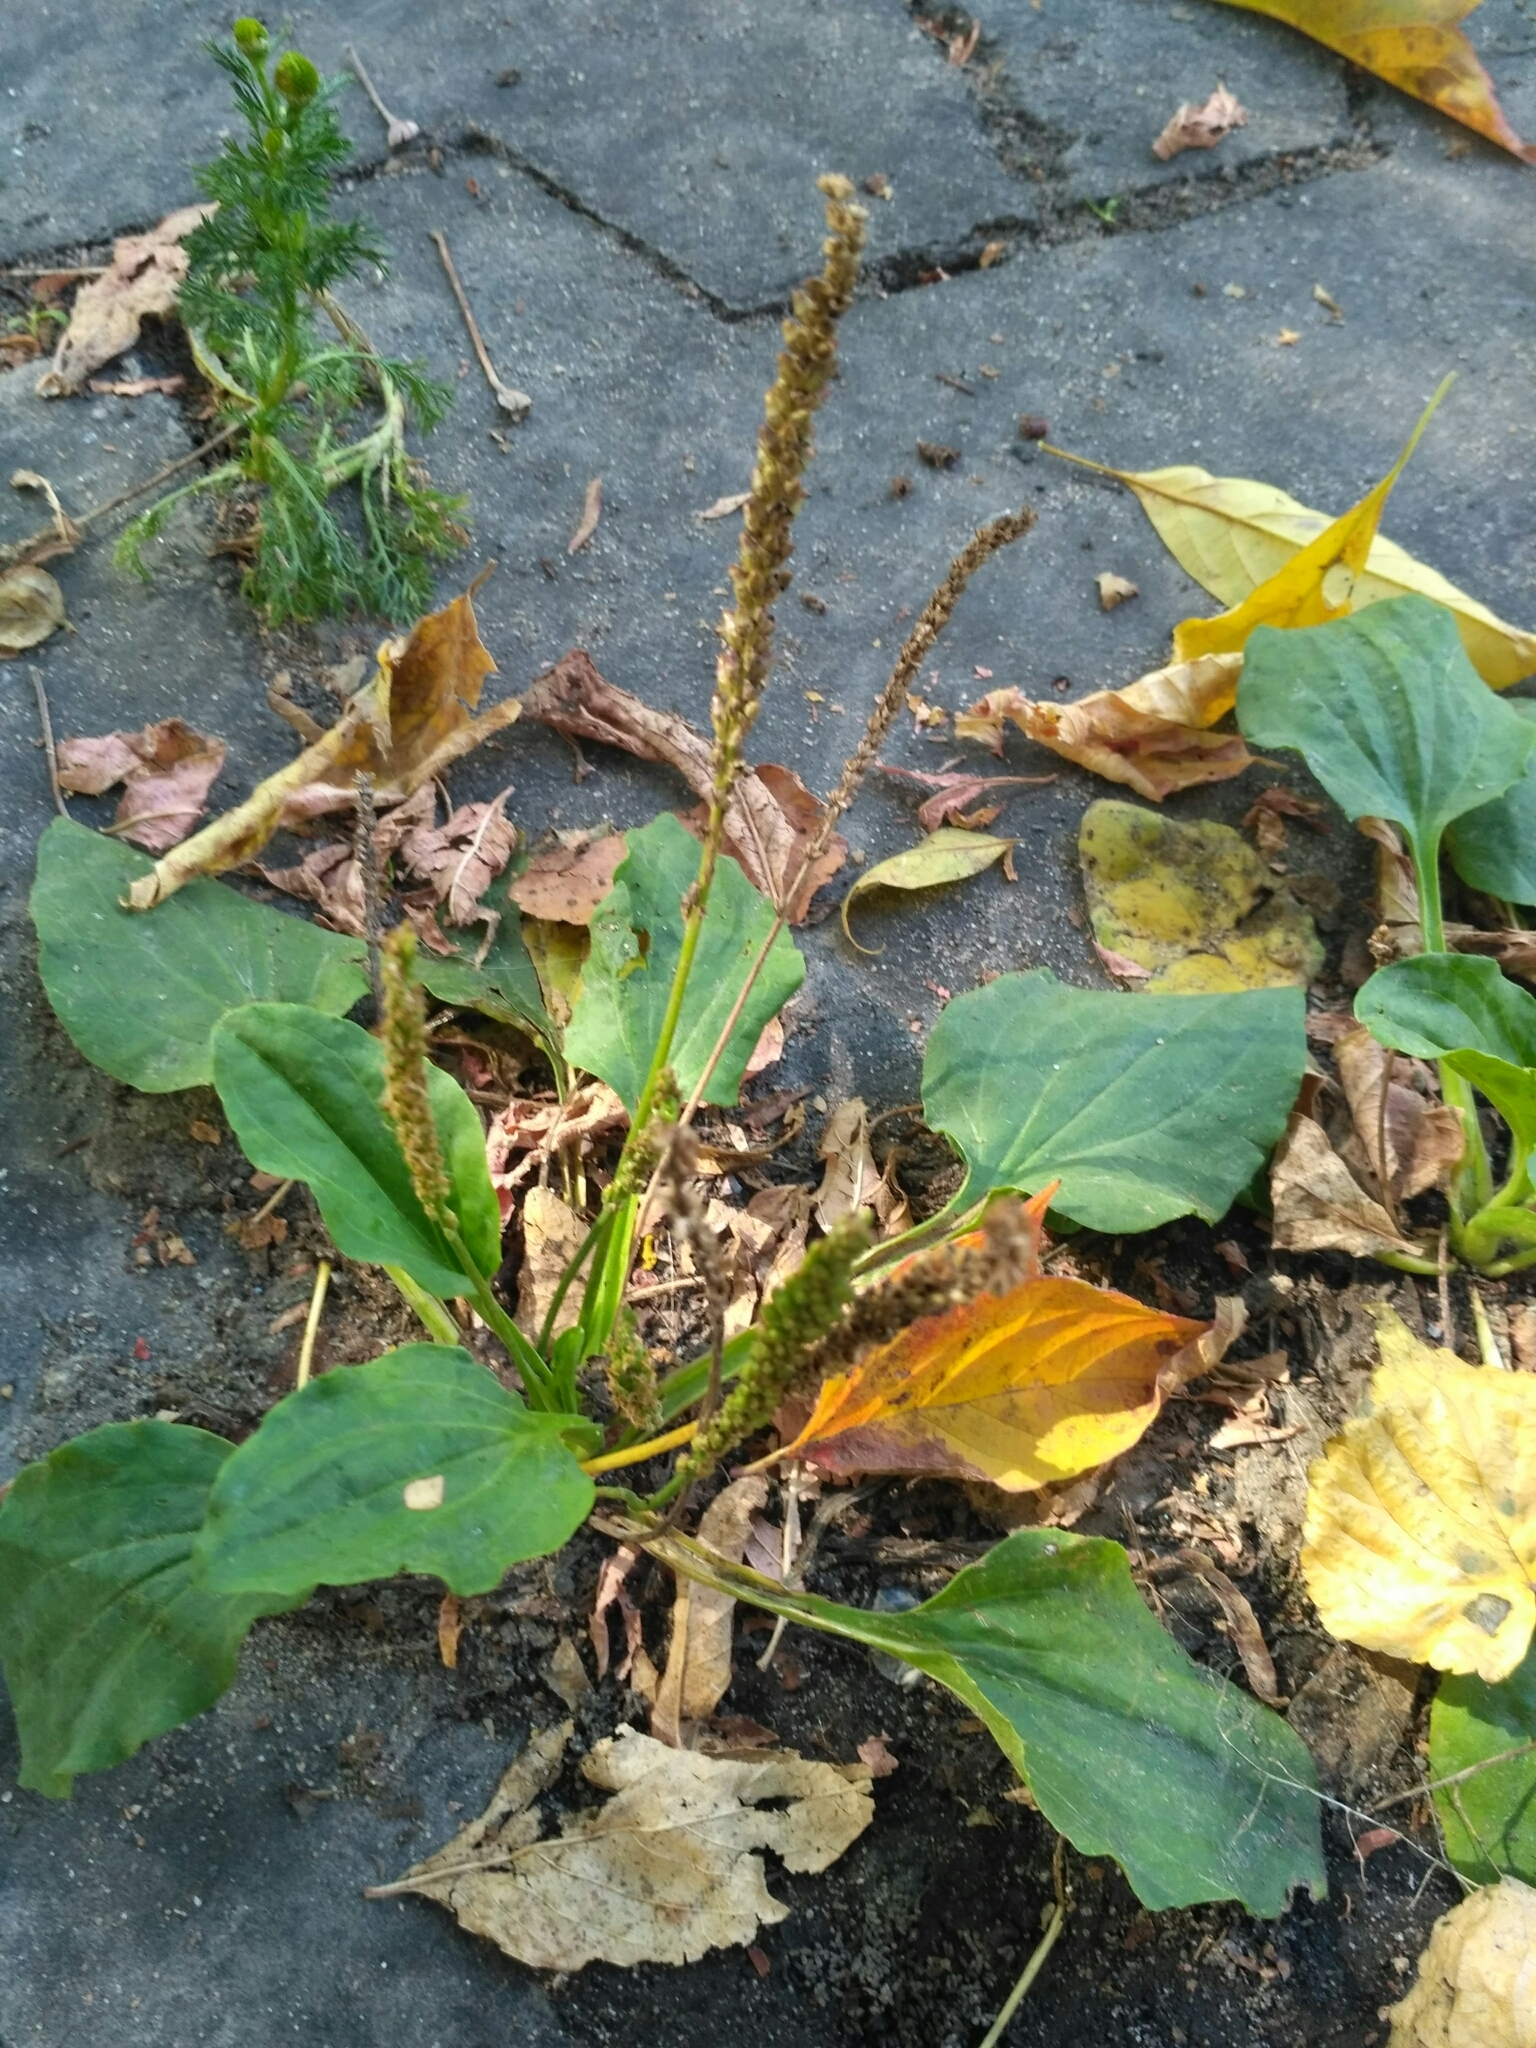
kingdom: Plantae
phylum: Tracheophyta
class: Magnoliopsida
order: Lamiales
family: Plantaginaceae
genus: Plantago
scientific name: Plantago major
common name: Common plantain
